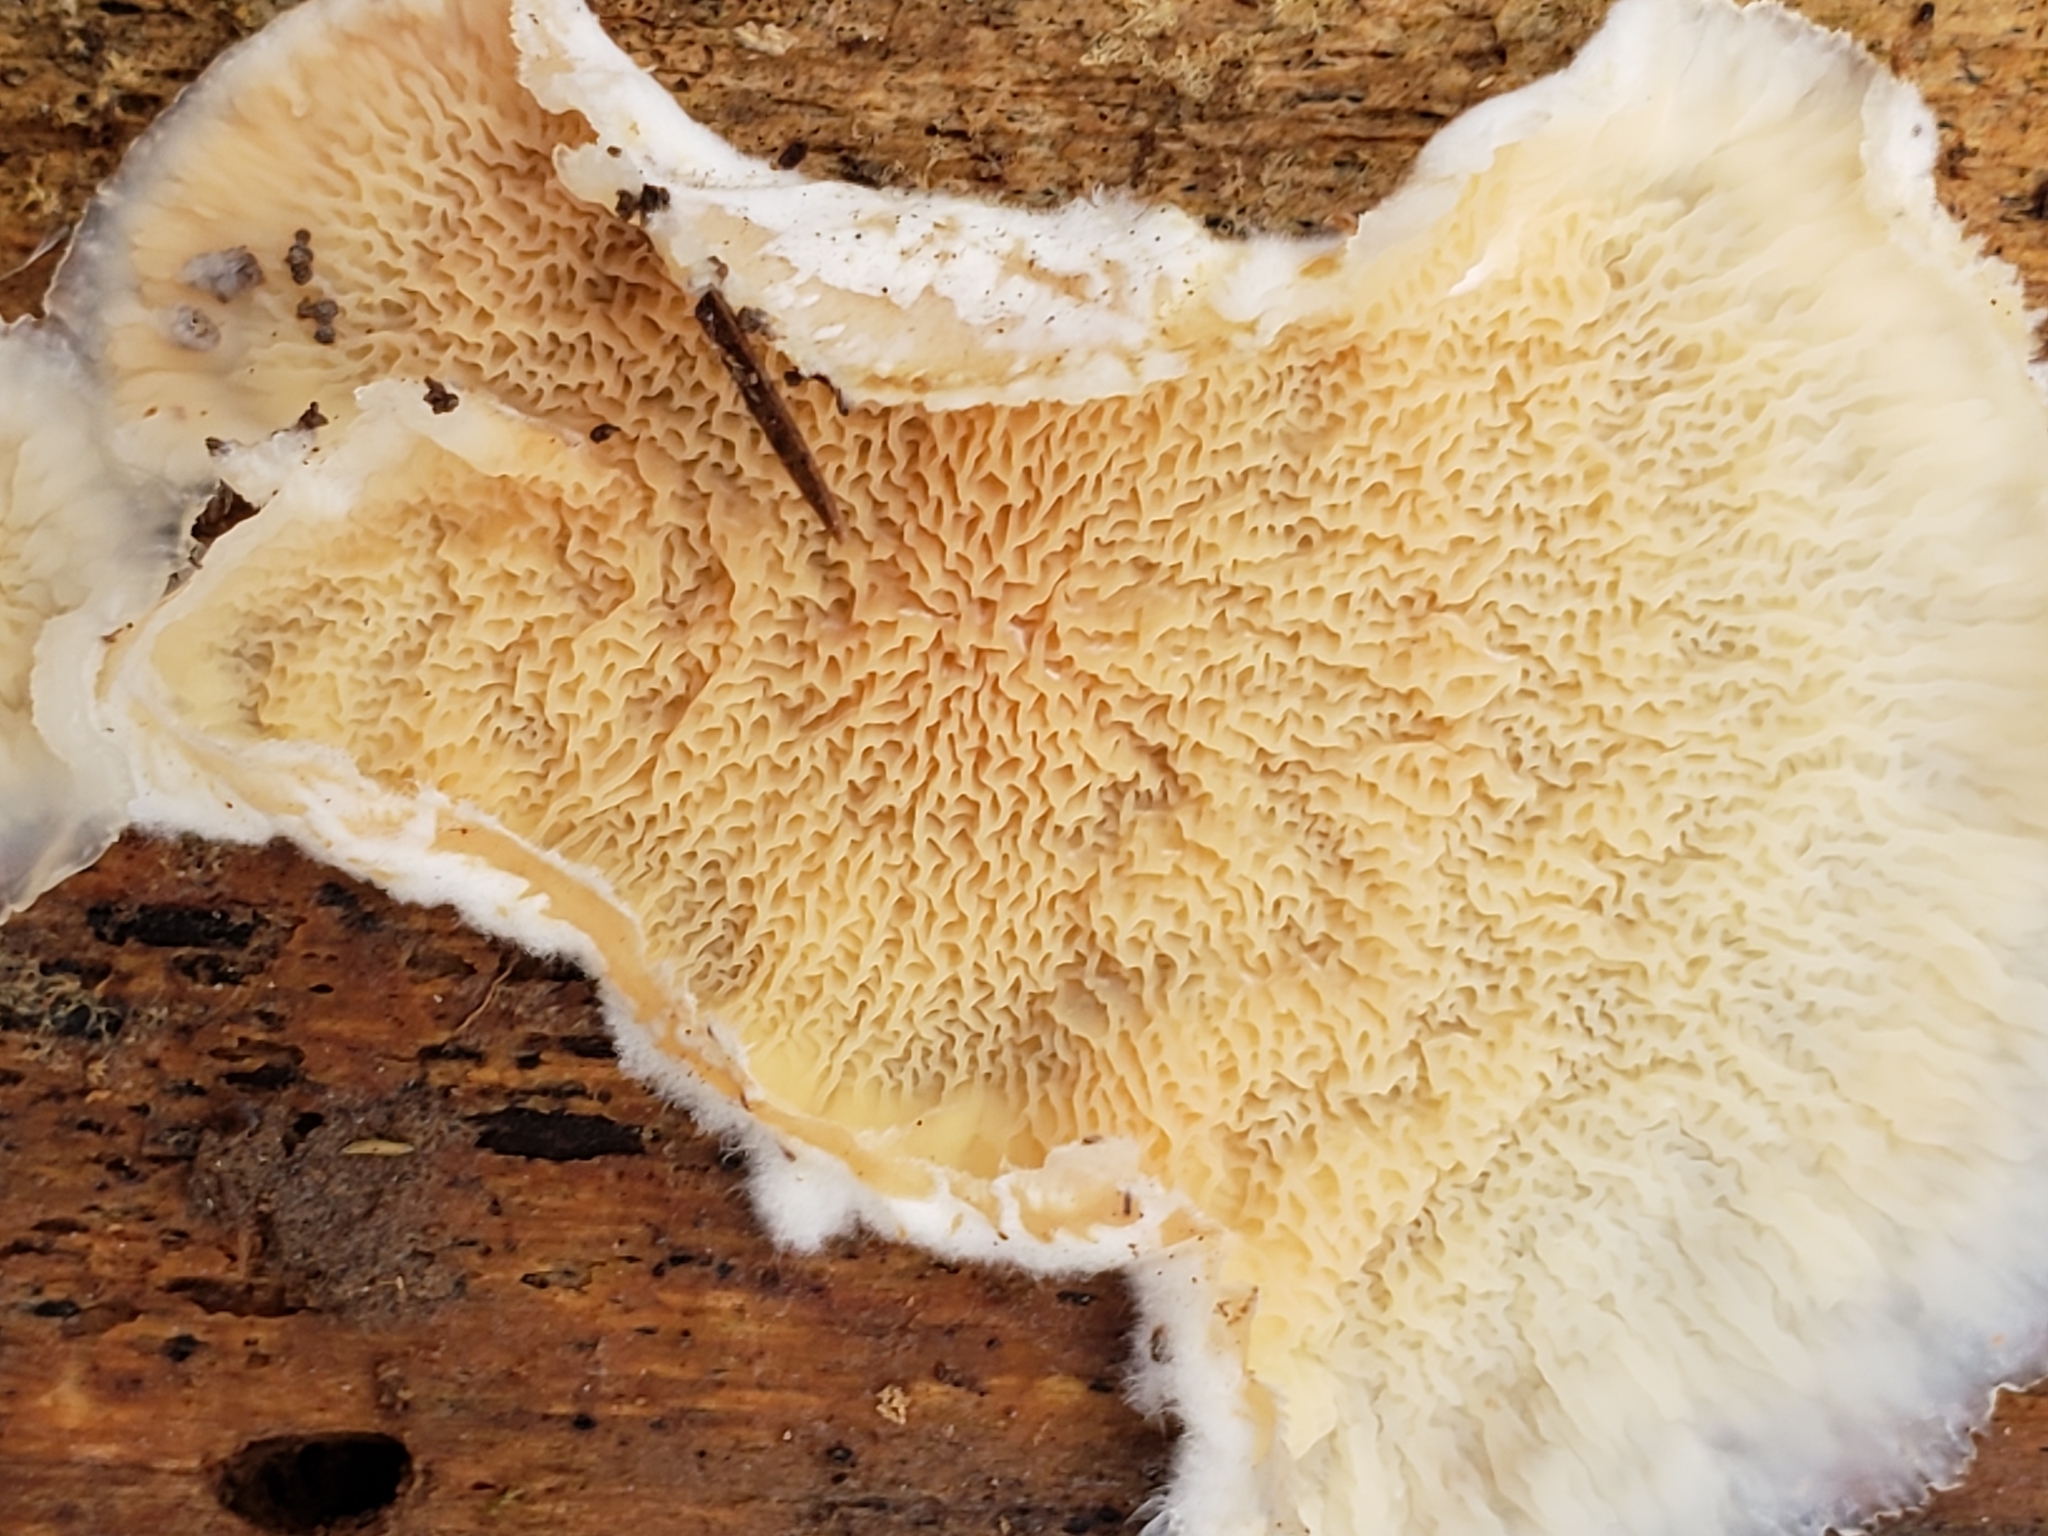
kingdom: Fungi
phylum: Basidiomycota
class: Agaricomycetes
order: Polyporales
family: Meruliaceae
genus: Phlebia
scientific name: Phlebia tremellosa
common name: Jelly rot
